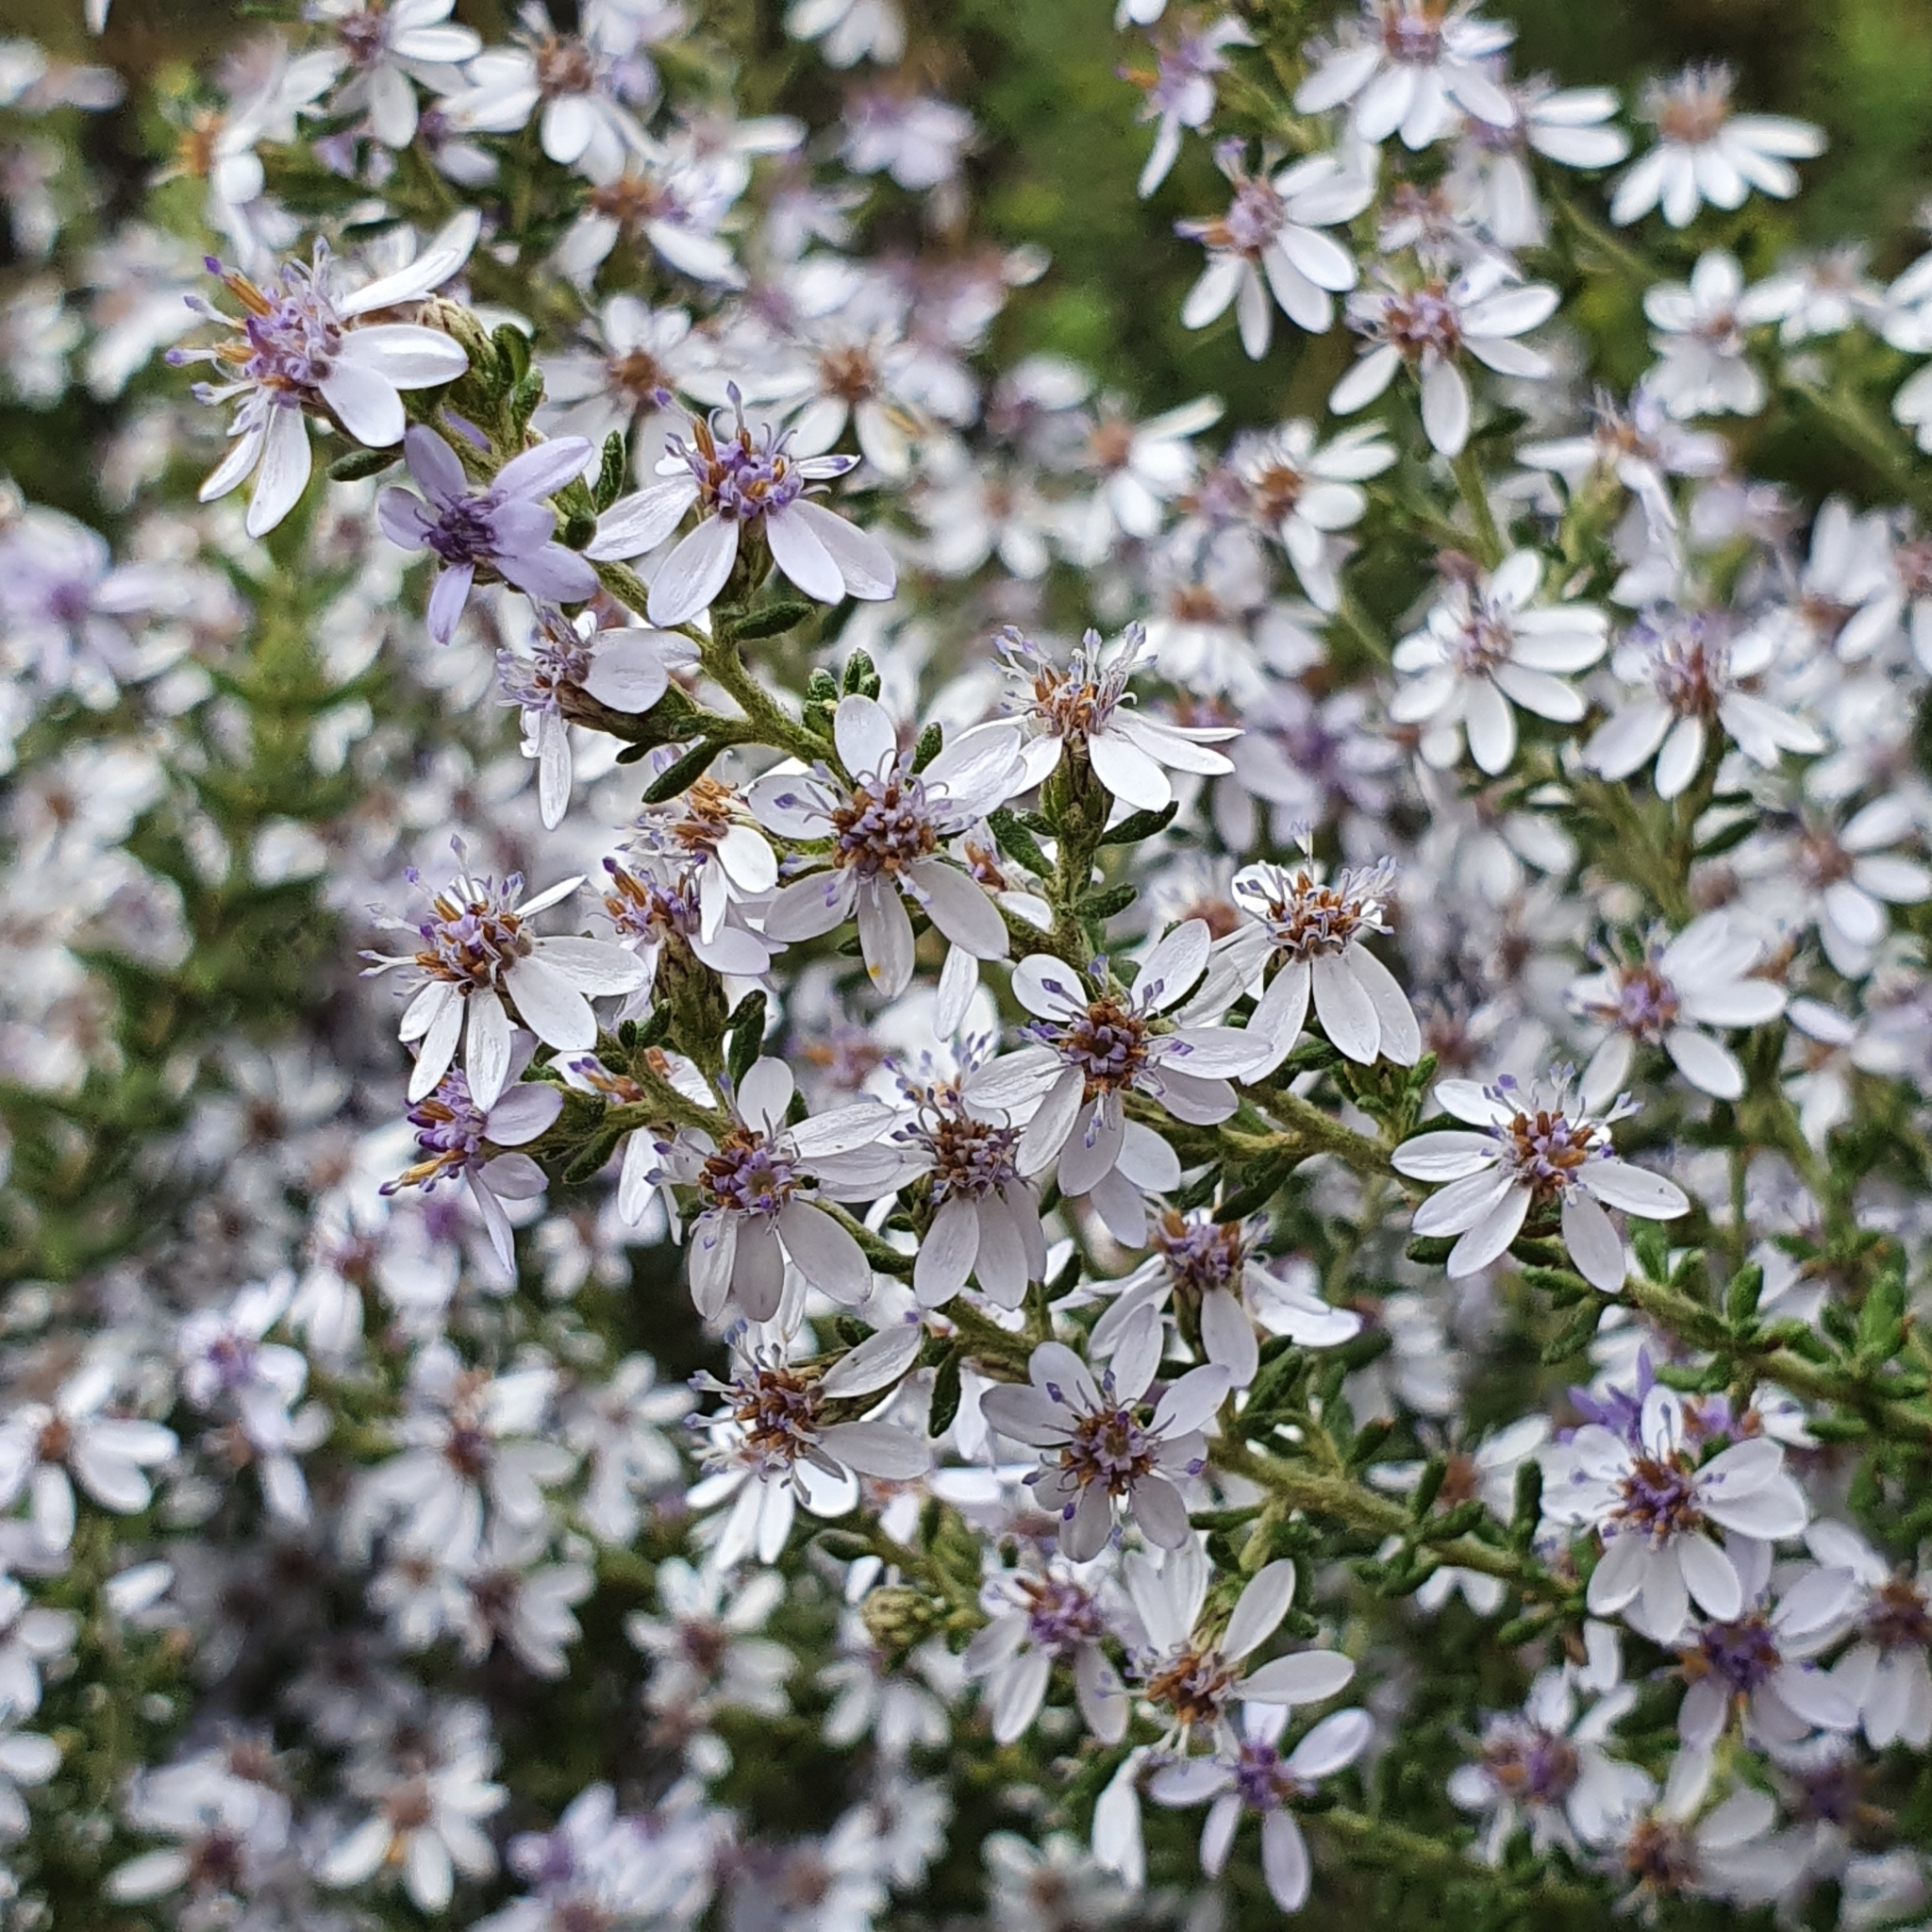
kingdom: Plantae
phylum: Tracheophyta
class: Magnoliopsida
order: Asterales
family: Asteraceae
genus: Olearia
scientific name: Olearia ramulosa
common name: Twiggy daisybush
